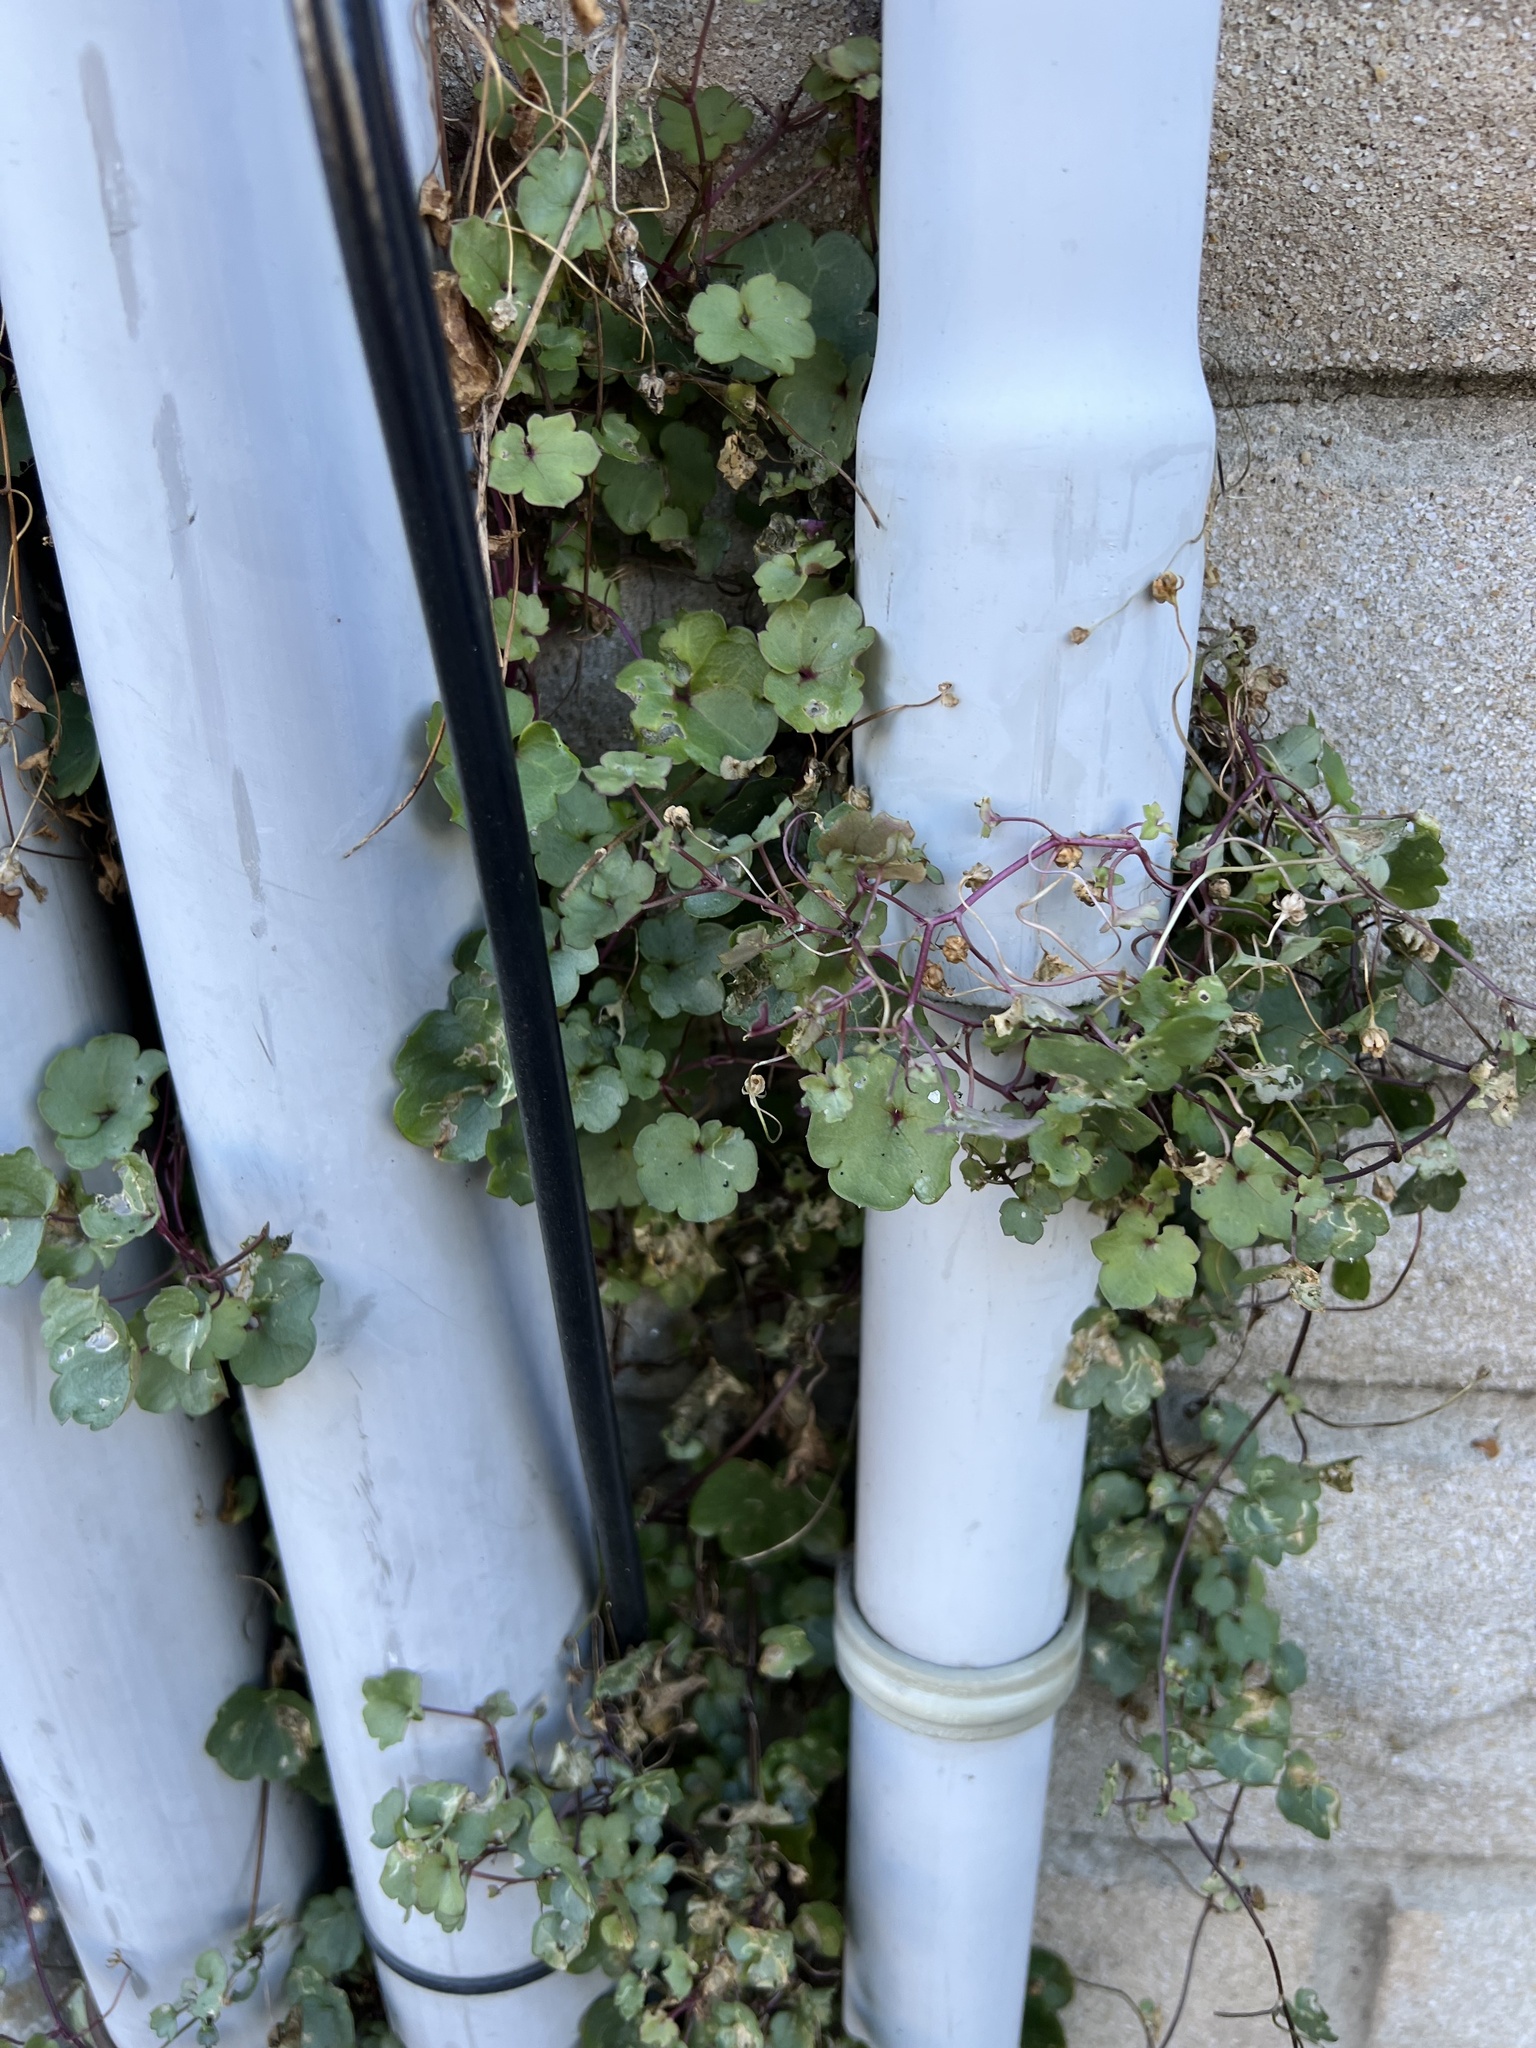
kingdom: Plantae
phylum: Tracheophyta
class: Magnoliopsida
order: Lamiales
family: Plantaginaceae
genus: Cymbalaria
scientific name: Cymbalaria muralis
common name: Ivy-leaved toadflax
